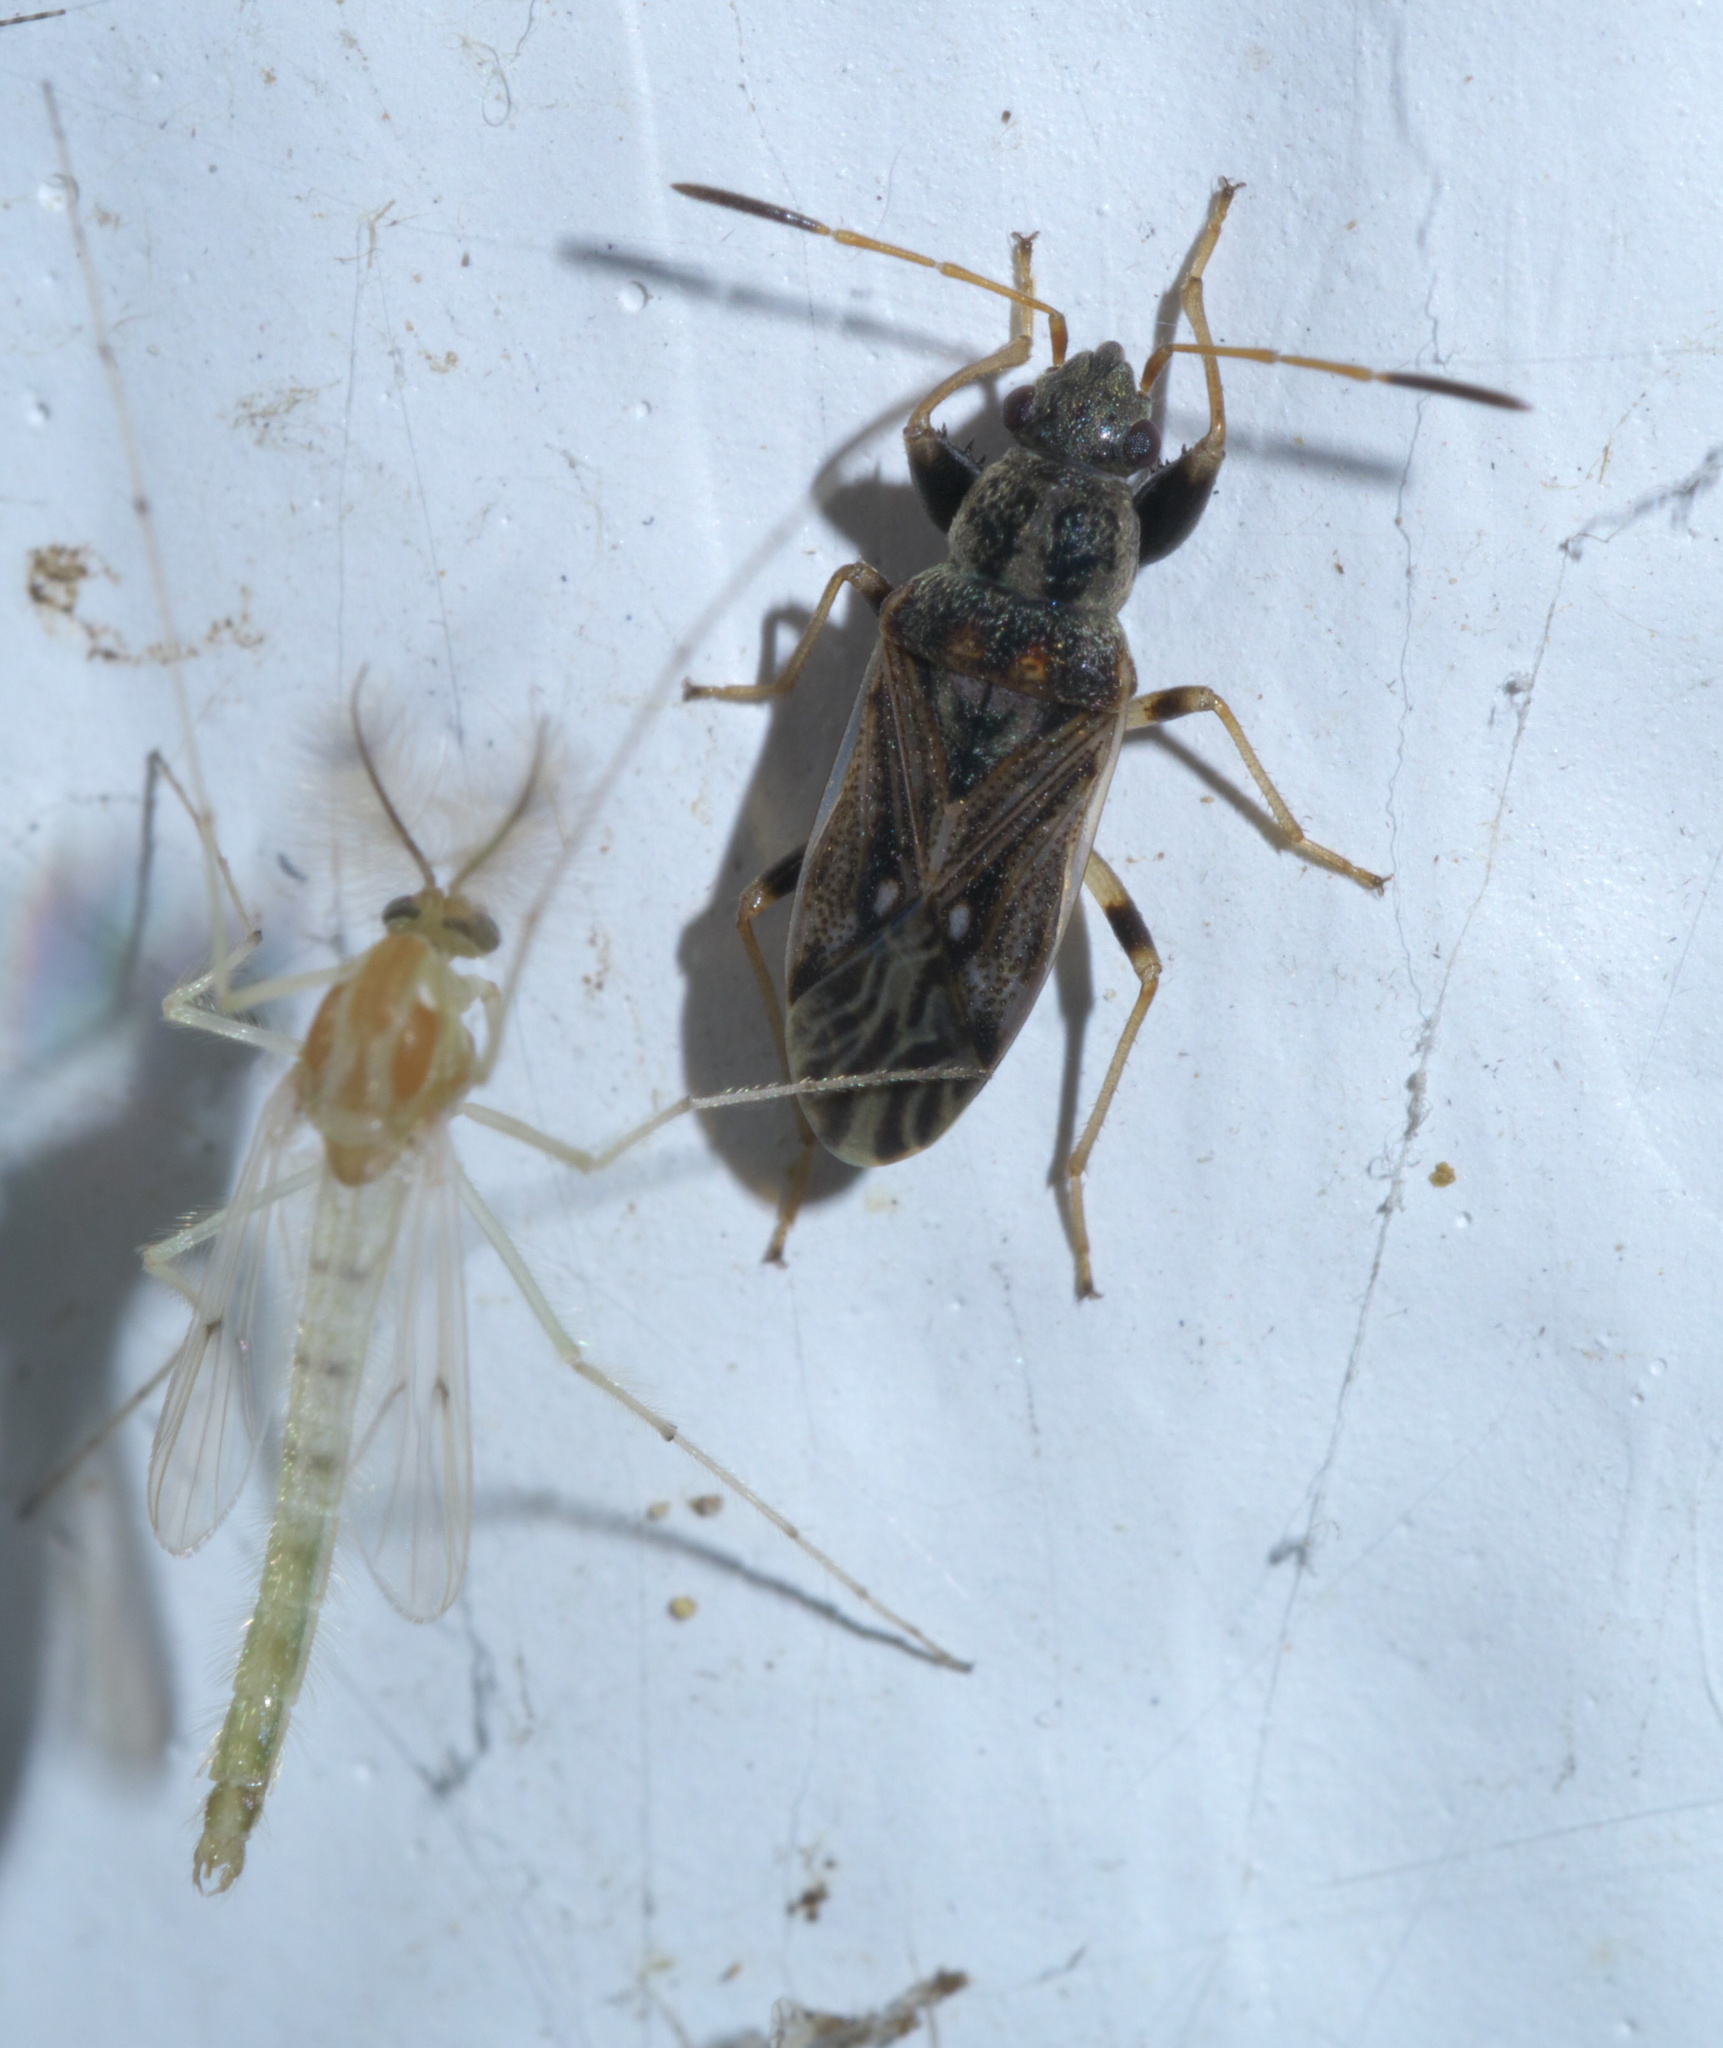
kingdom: Animalia
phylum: Arthropoda
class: Insecta
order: Hemiptera
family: Rhyparochromidae
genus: Pseudopachybrachius
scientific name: Pseudopachybrachius basalis
